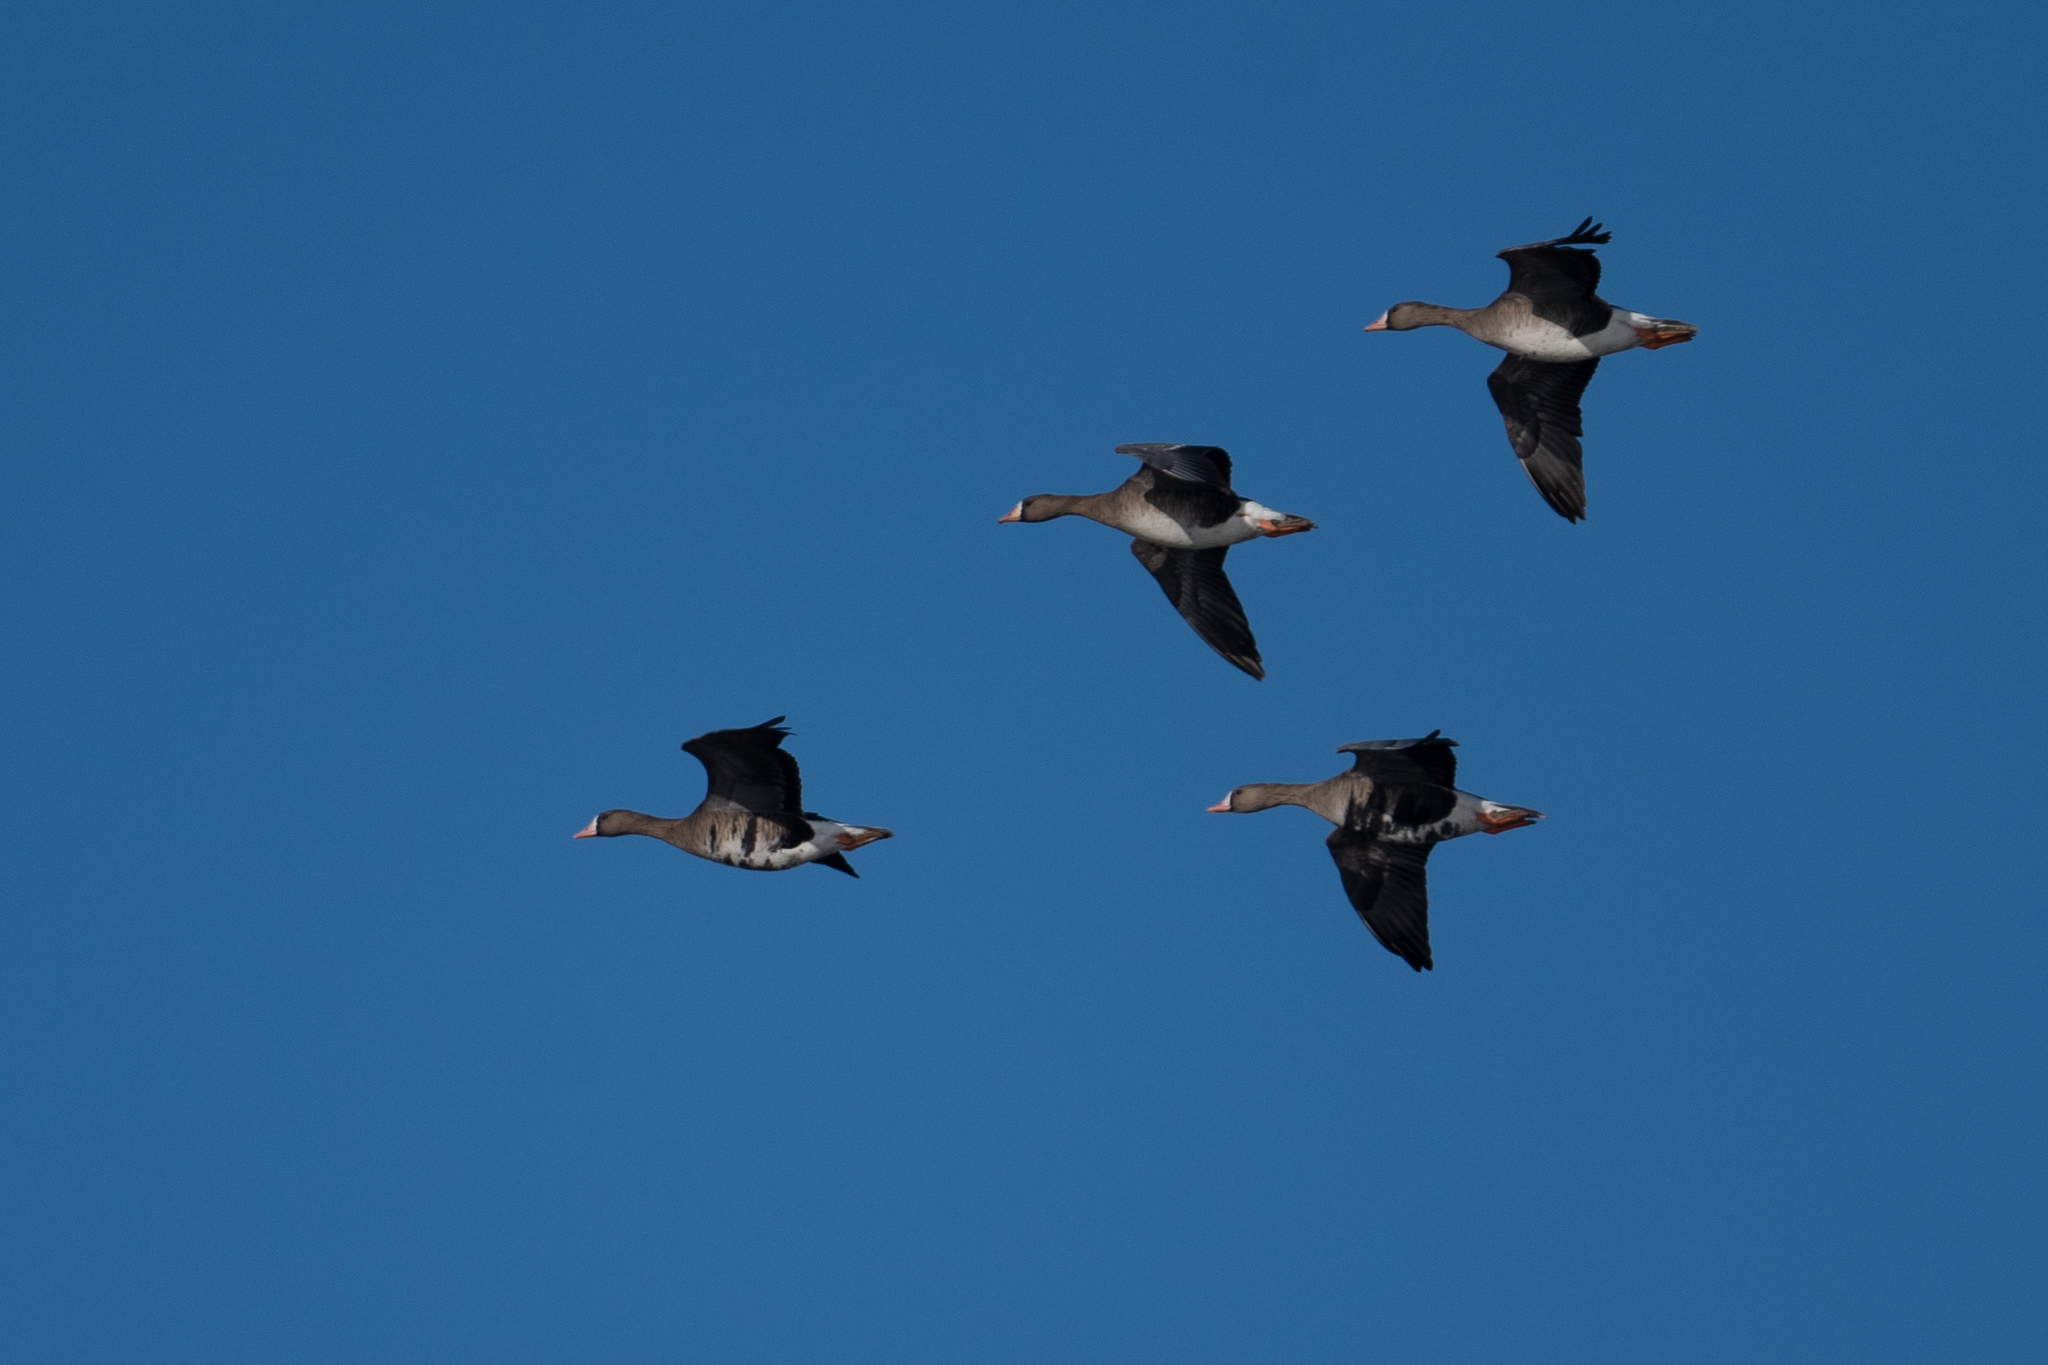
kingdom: Animalia
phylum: Chordata
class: Aves
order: Anseriformes
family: Anatidae
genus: Anser
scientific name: Anser albifrons
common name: Greater white-fronted goose
